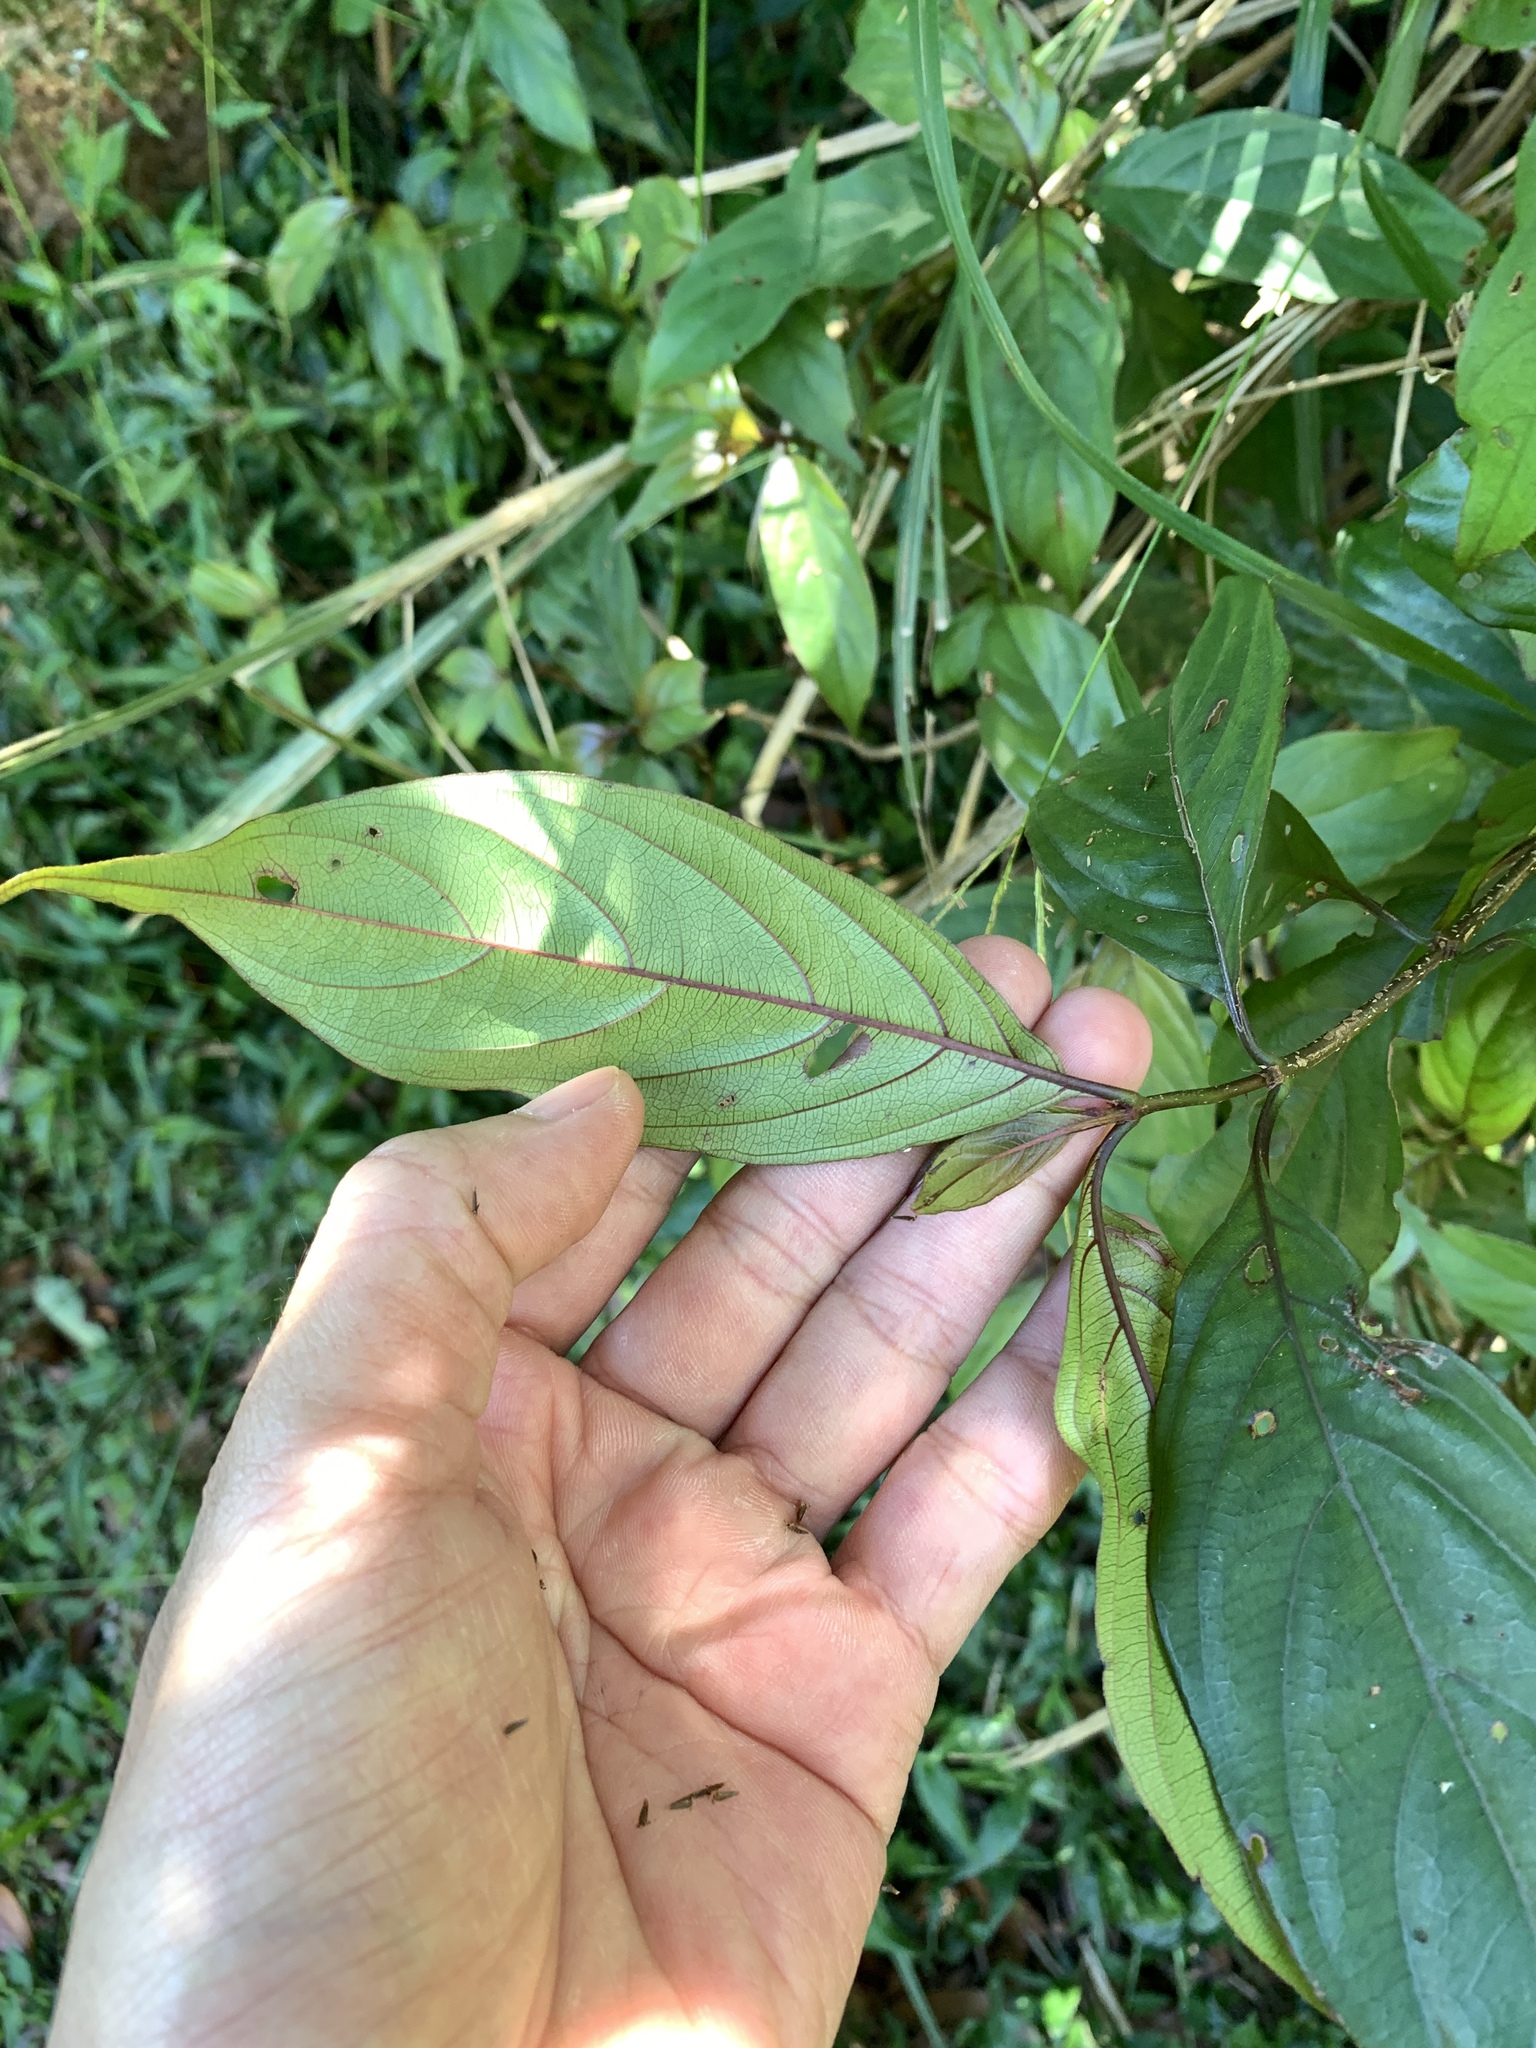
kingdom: Plantae
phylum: Tracheophyta
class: Magnoliopsida
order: Gentianales
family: Rubiaceae
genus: Mussaenda
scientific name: Mussaenda parviflora
